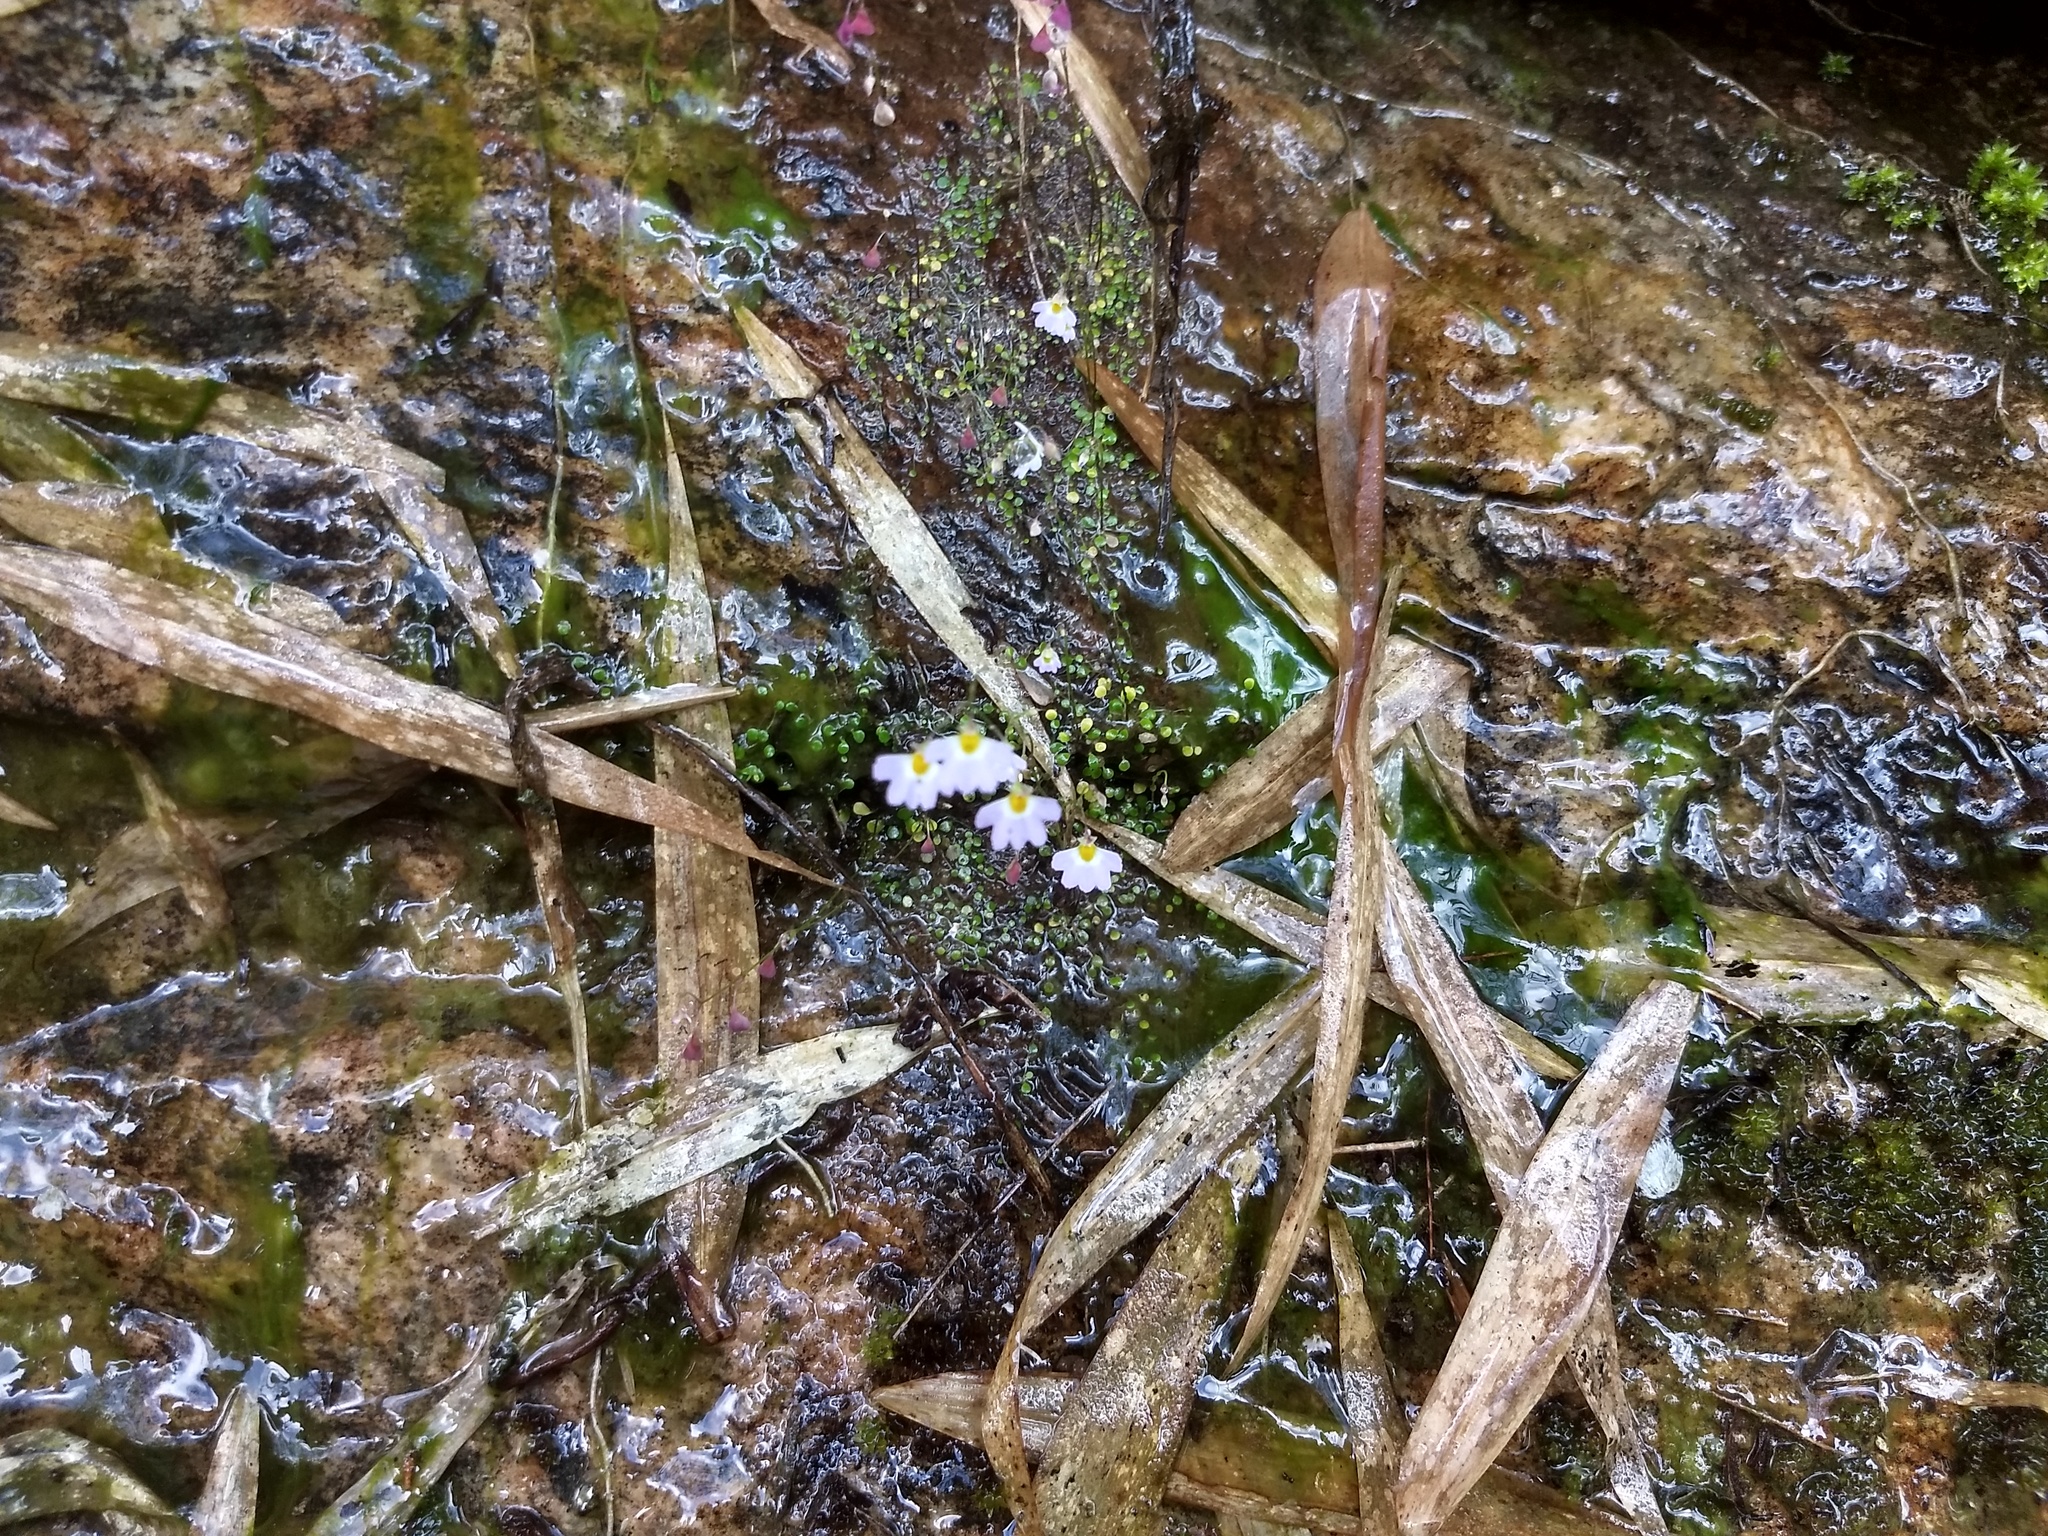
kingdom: Plantae
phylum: Tracheophyta
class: Magnoliopsida
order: Lamiales
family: Lentibulariaceae
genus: Utricularia
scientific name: Utricularia striatula
